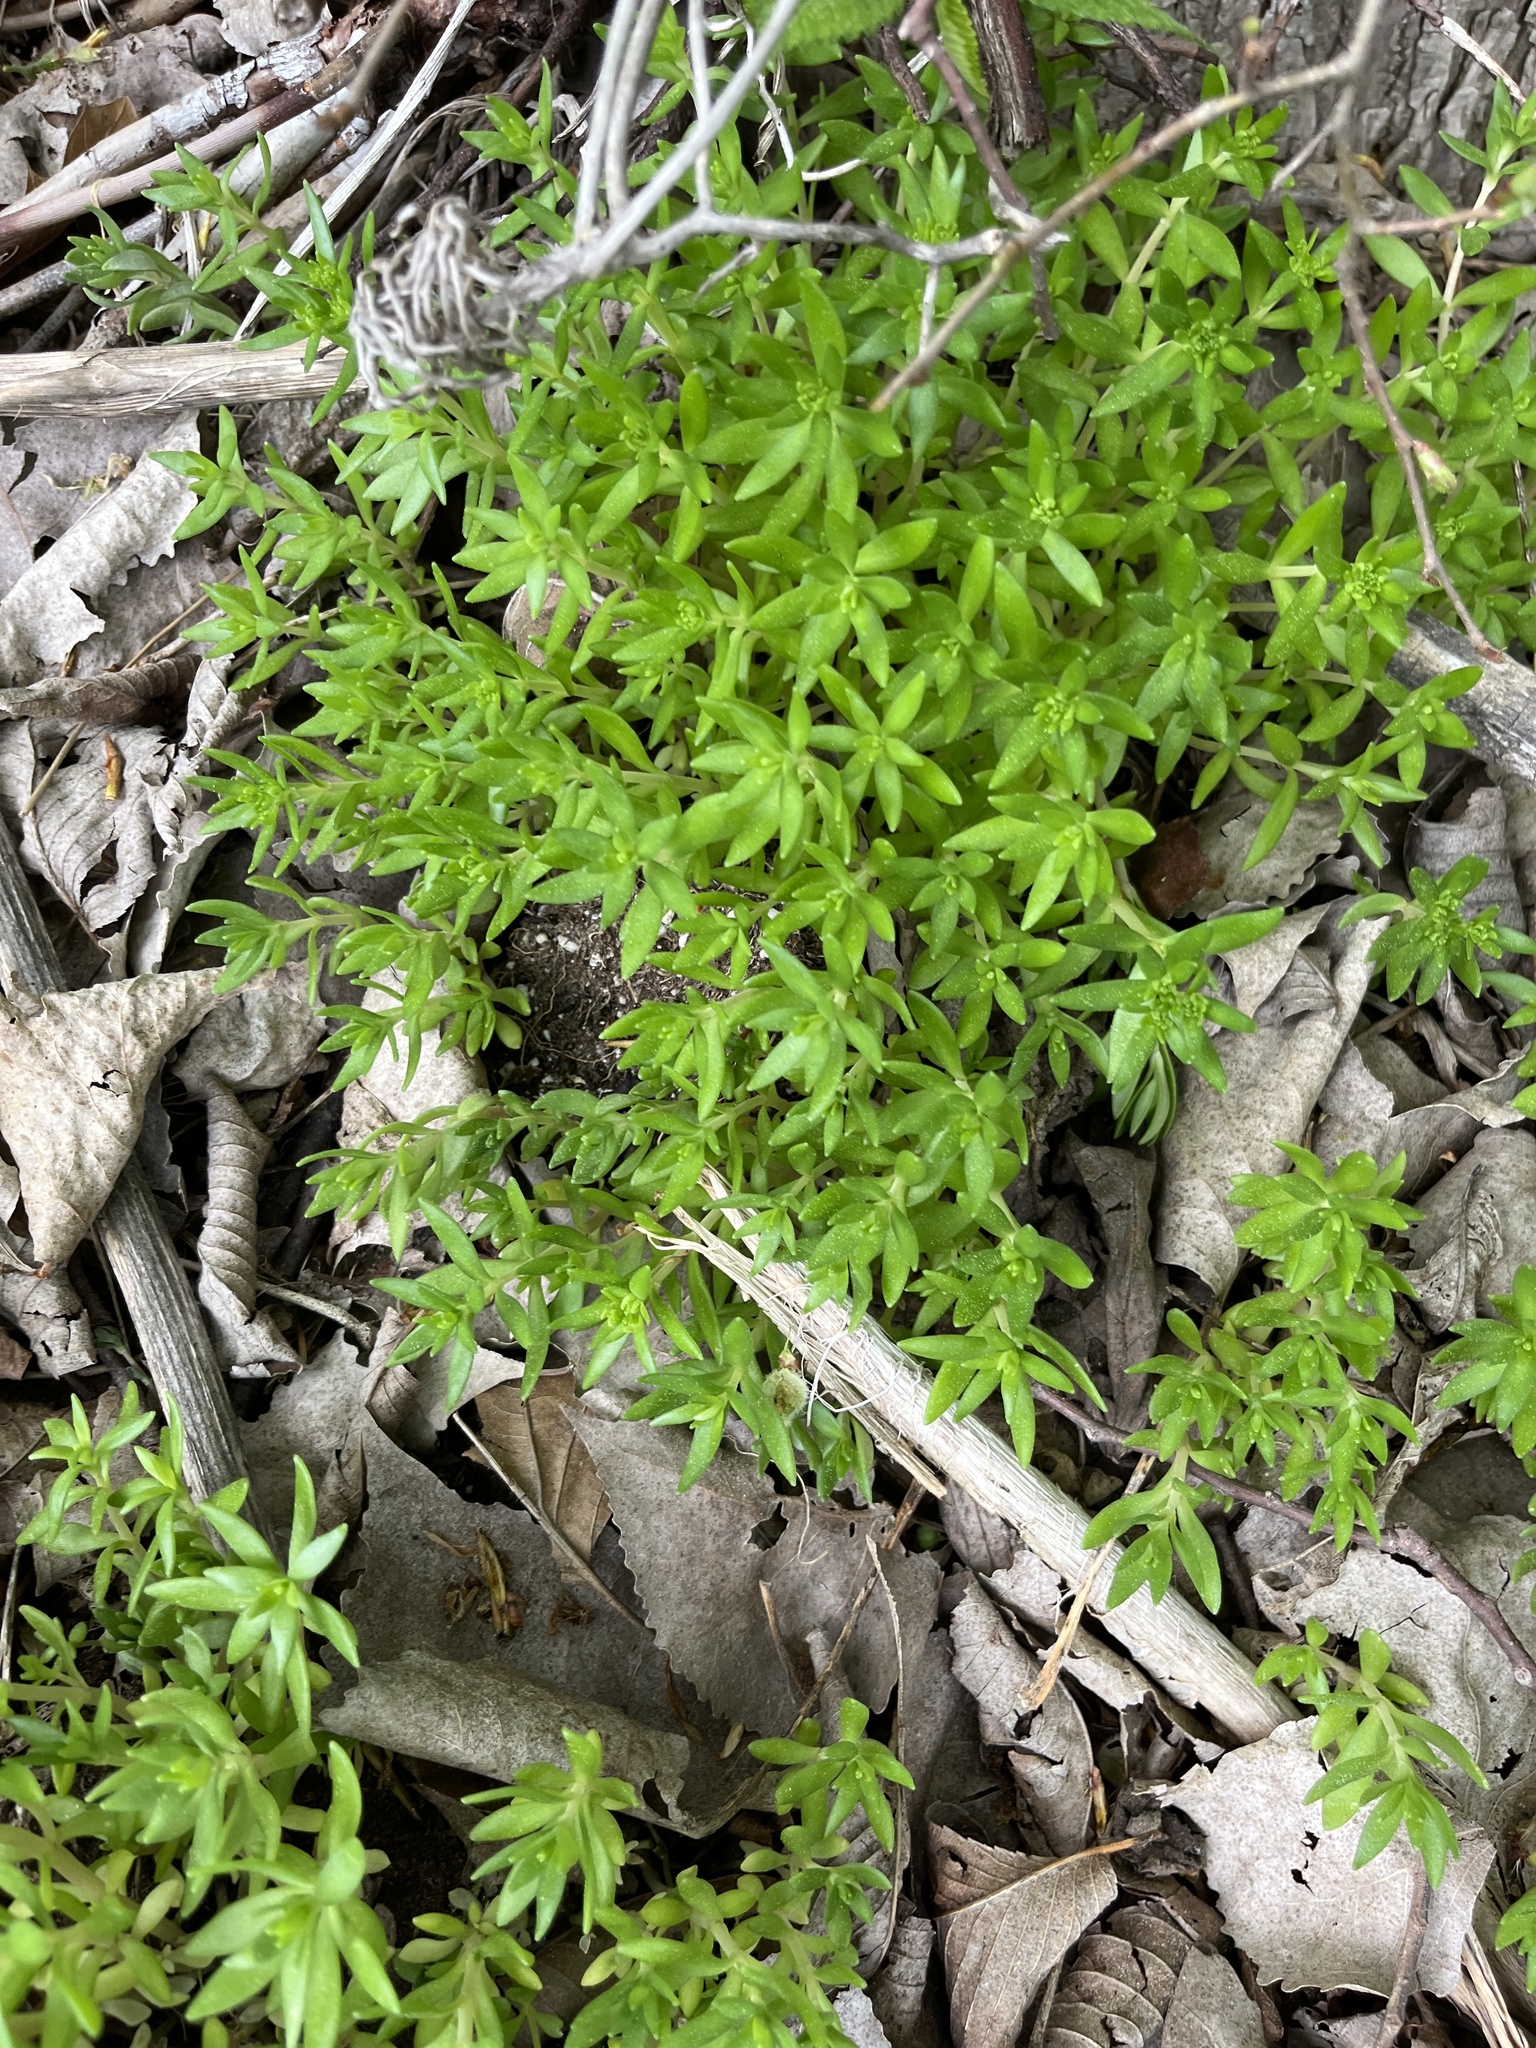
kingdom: Plantae
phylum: Tracheophyta
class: Magnoliopsida
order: Saxifragales
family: Crassulaceae
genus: Sedum
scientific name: Sedum sarmentosum
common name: Stringy stonecrop
